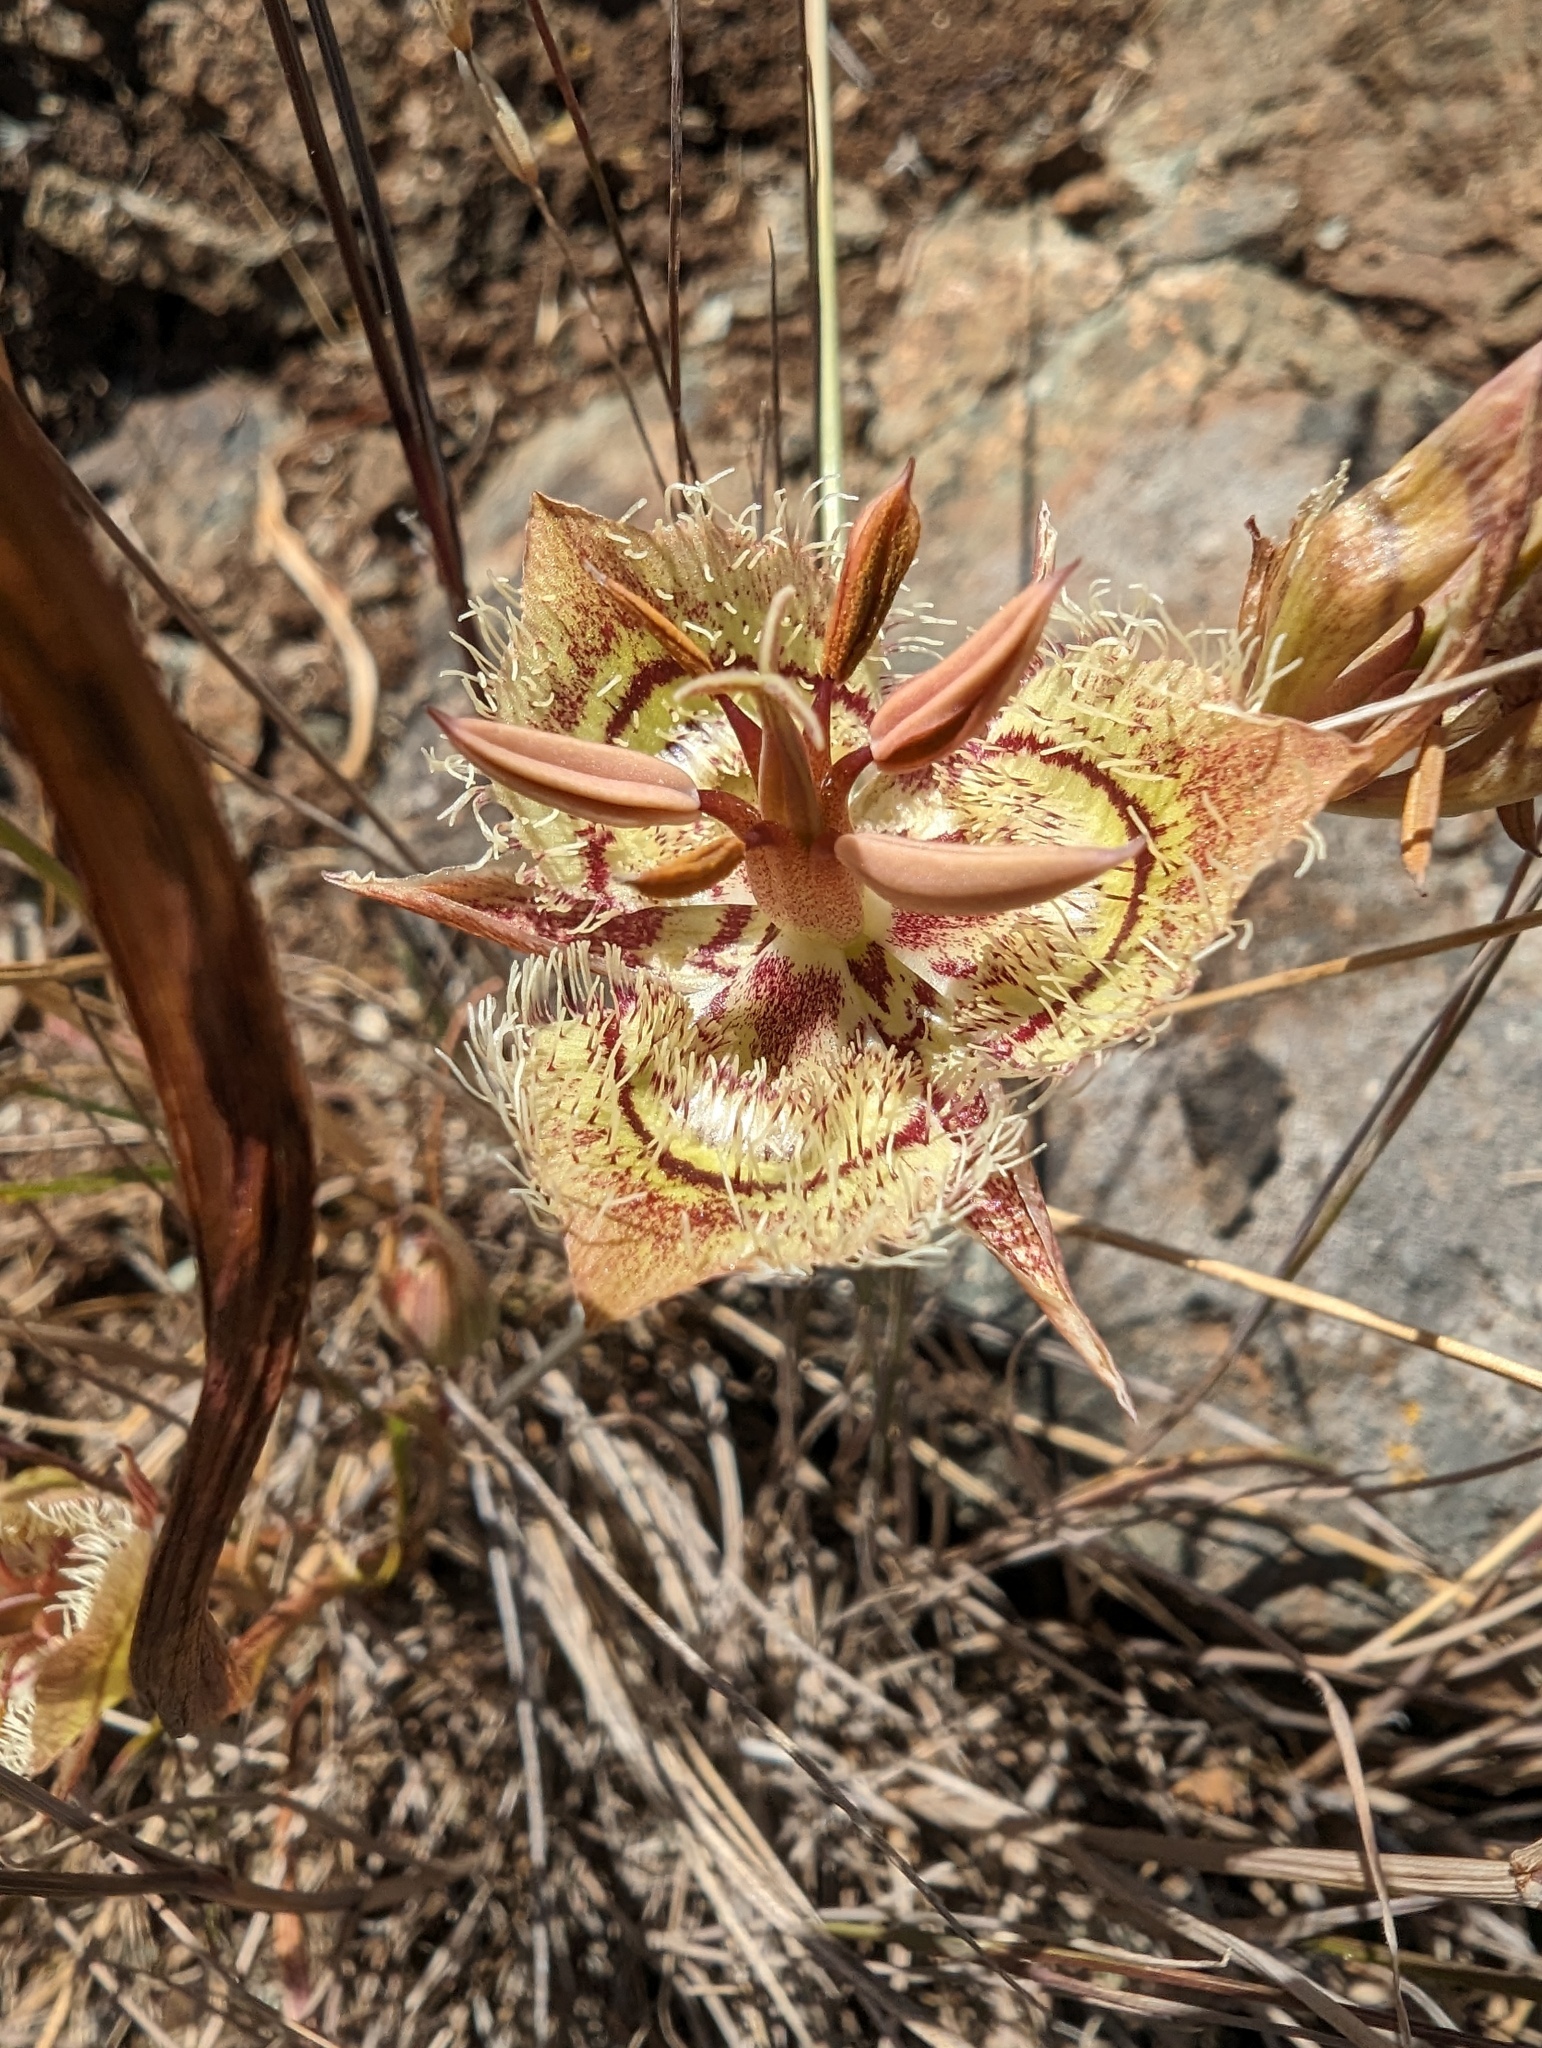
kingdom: Plantae
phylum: Tracheophyta
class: Liliopsida
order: Liliales
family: Liliaceae
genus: Calochortus
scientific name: Calochortus tiburonensis
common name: Tiburon mariposa-lily
